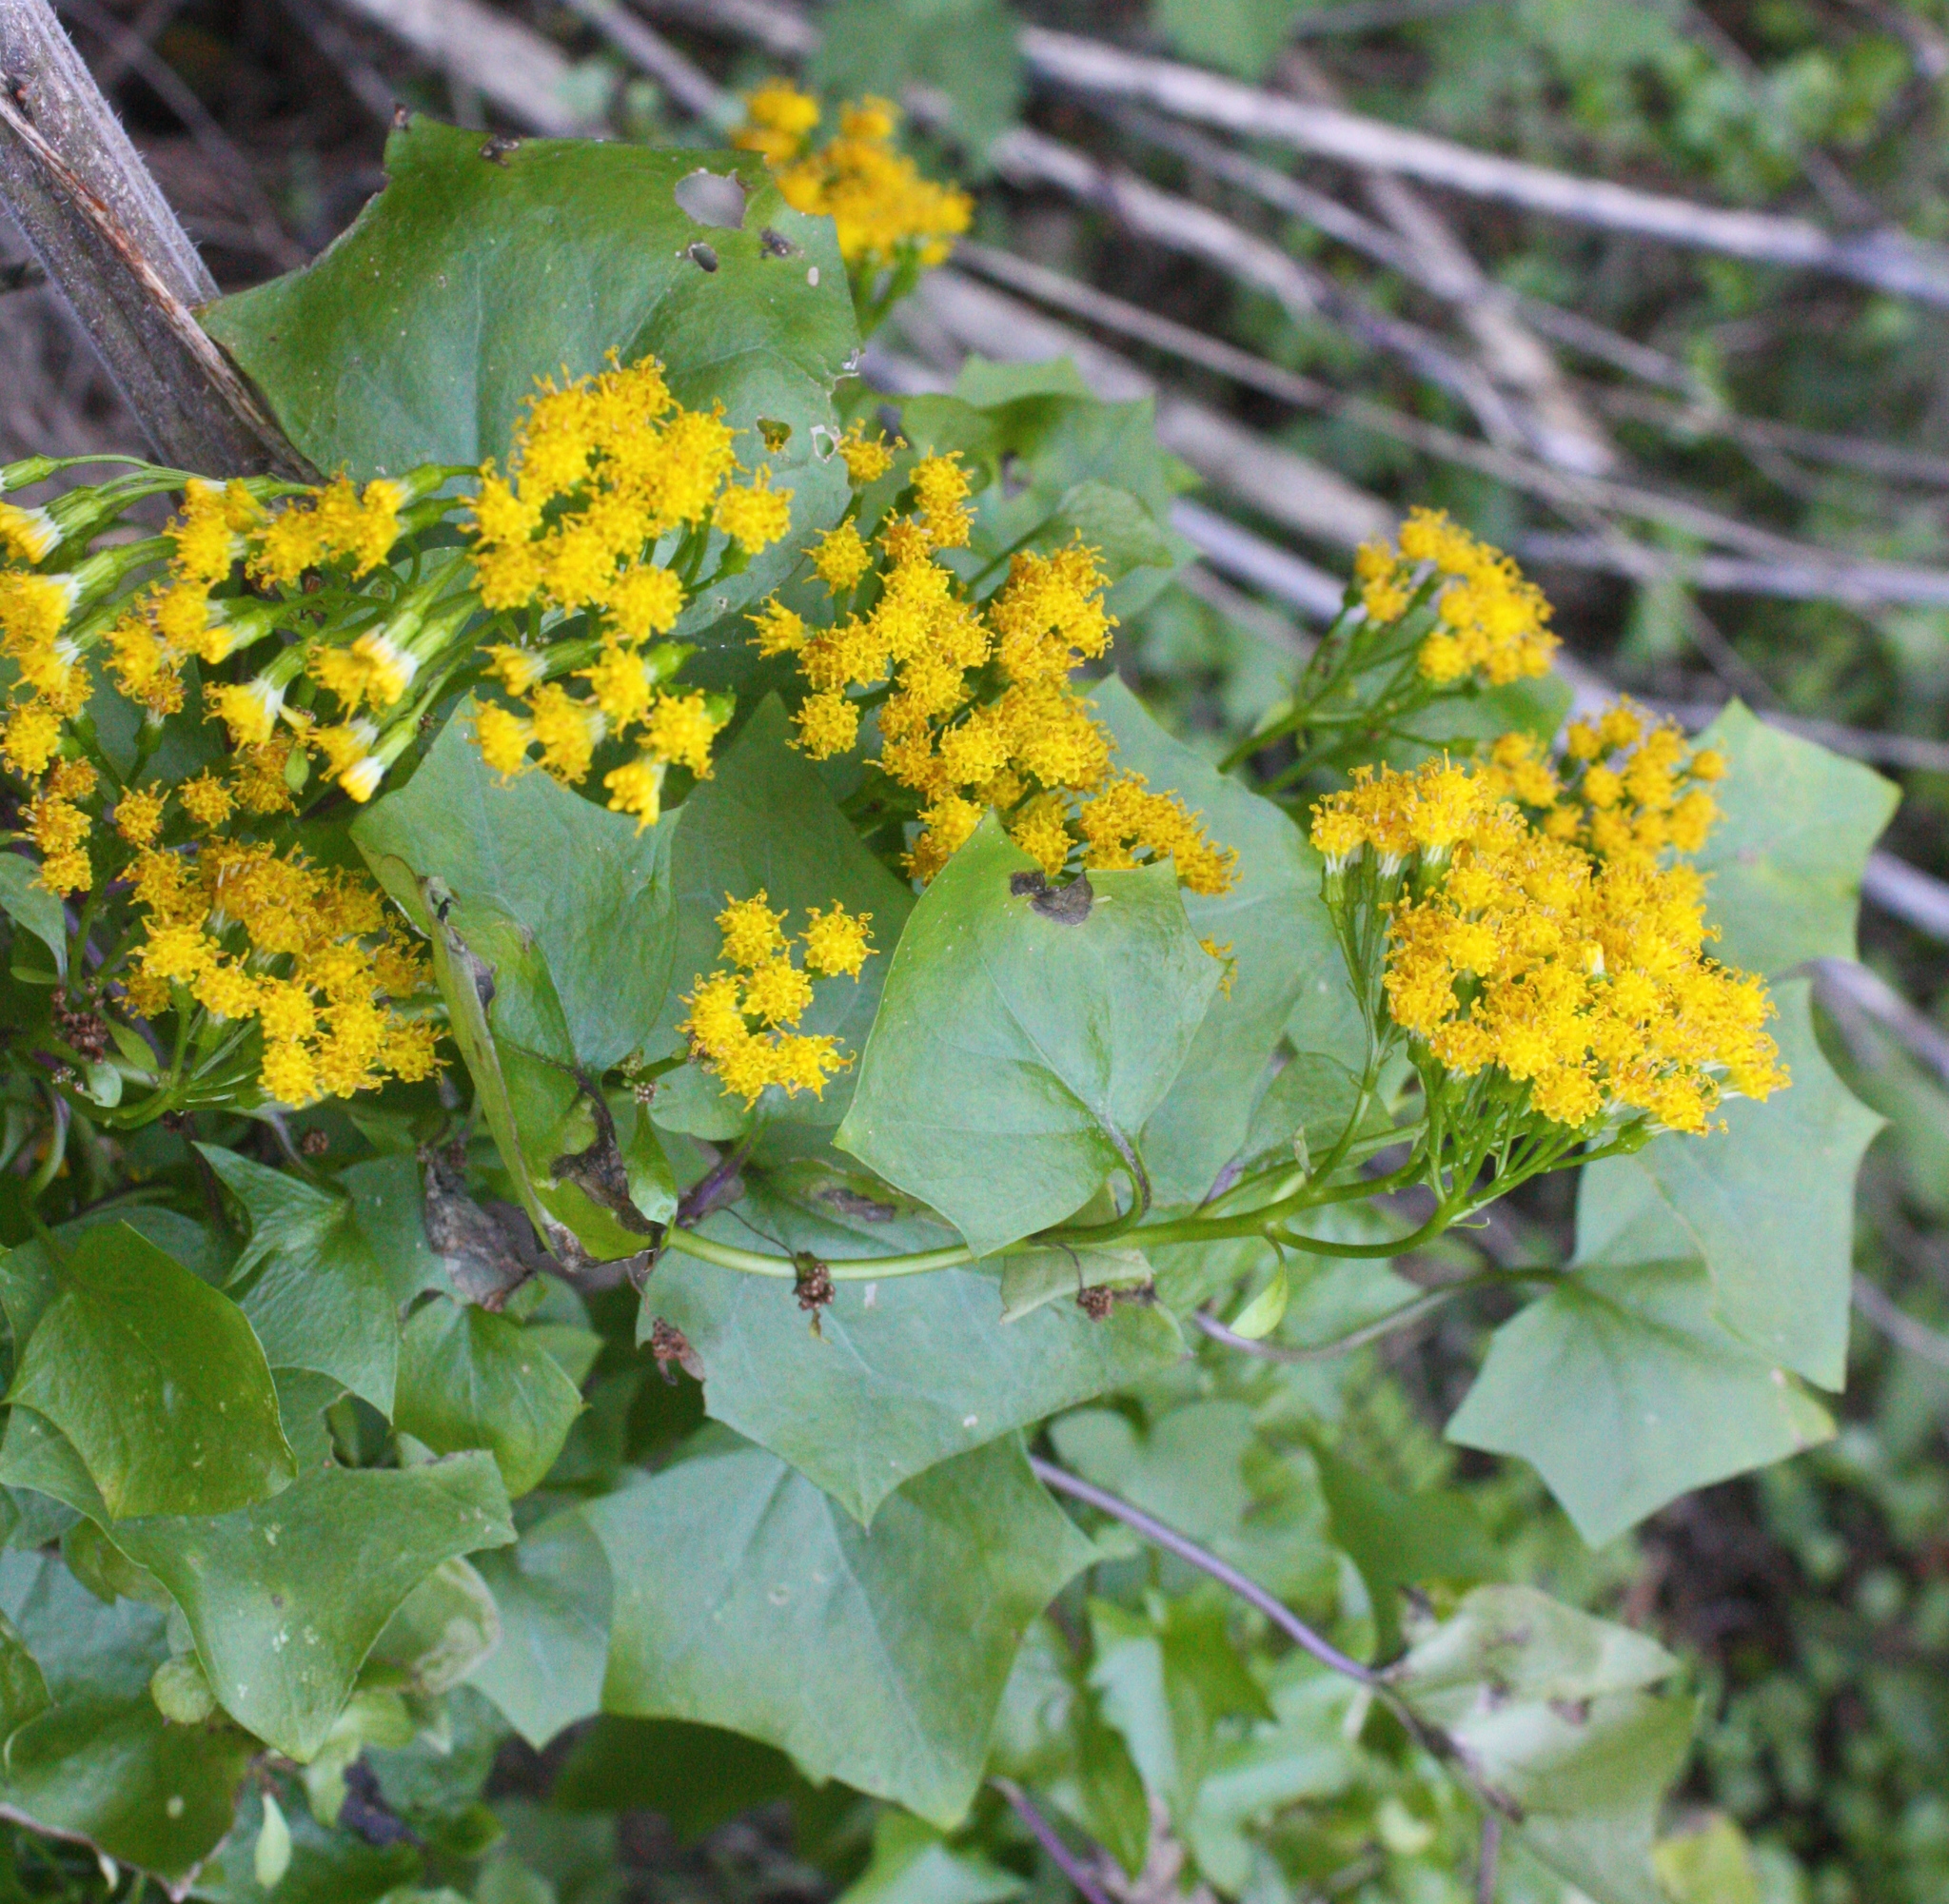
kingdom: Plantae
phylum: Tracheophyta
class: Magnoliopsida
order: Asterales
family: Asteraceae
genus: Delairea
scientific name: Delairea odorata
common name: Cape-ivy
